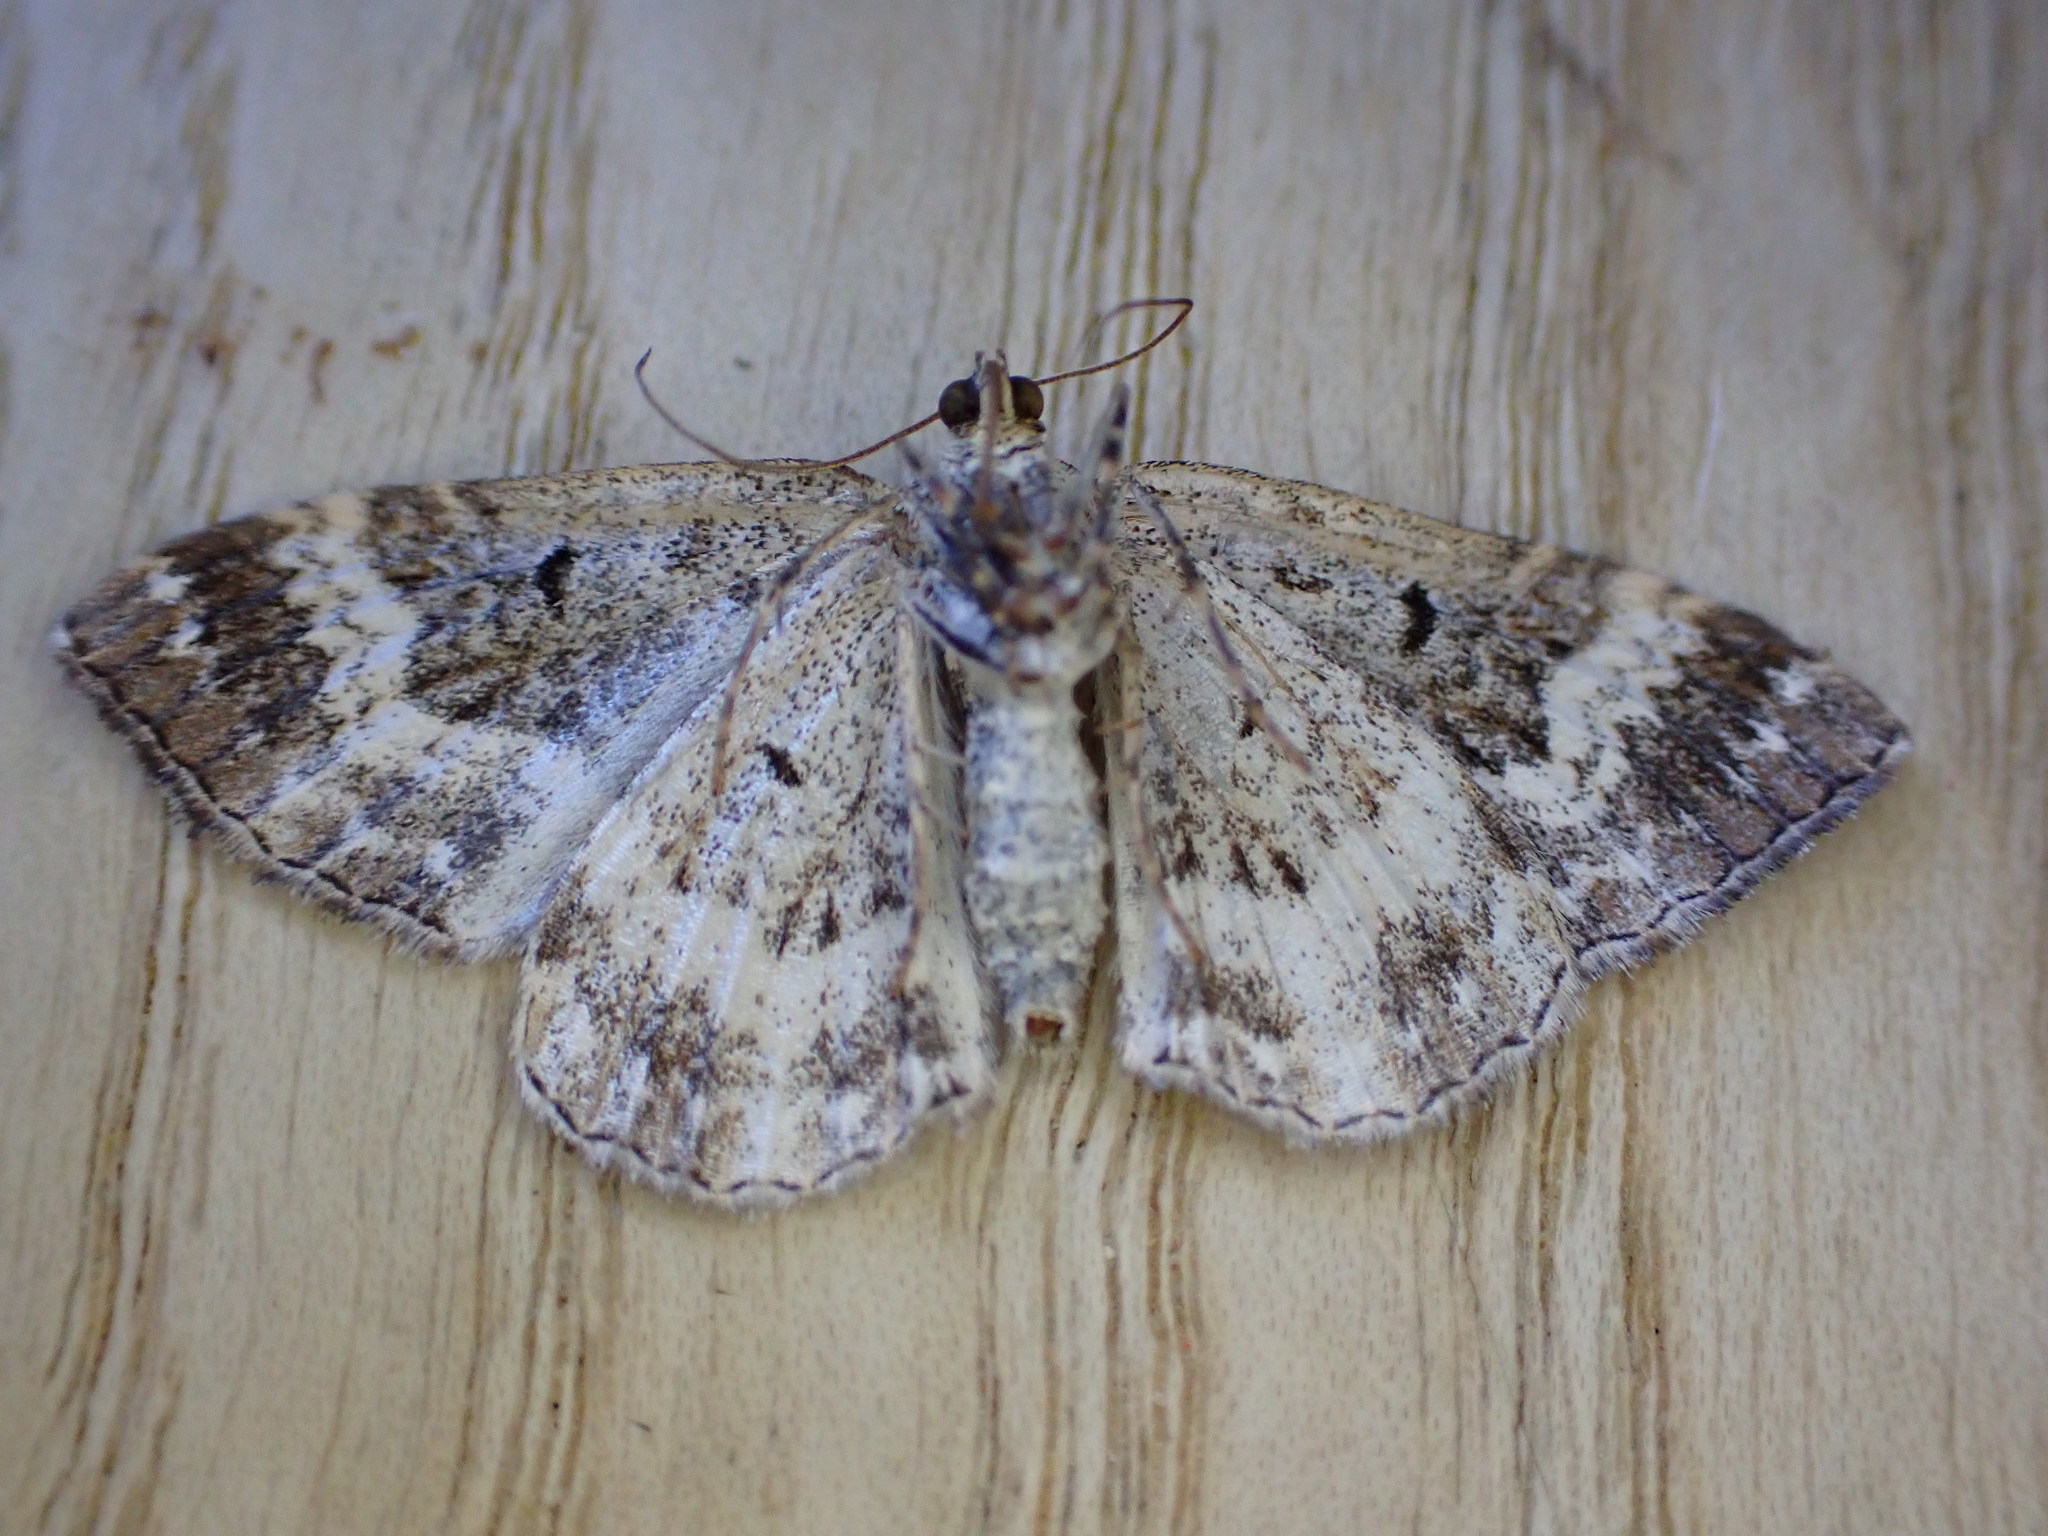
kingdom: Animalia
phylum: Arthropoda
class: Insecta
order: Lepidoptera
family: Geometridae
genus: Epirrhoe
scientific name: Epirrhoe alternata
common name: Common carpet
